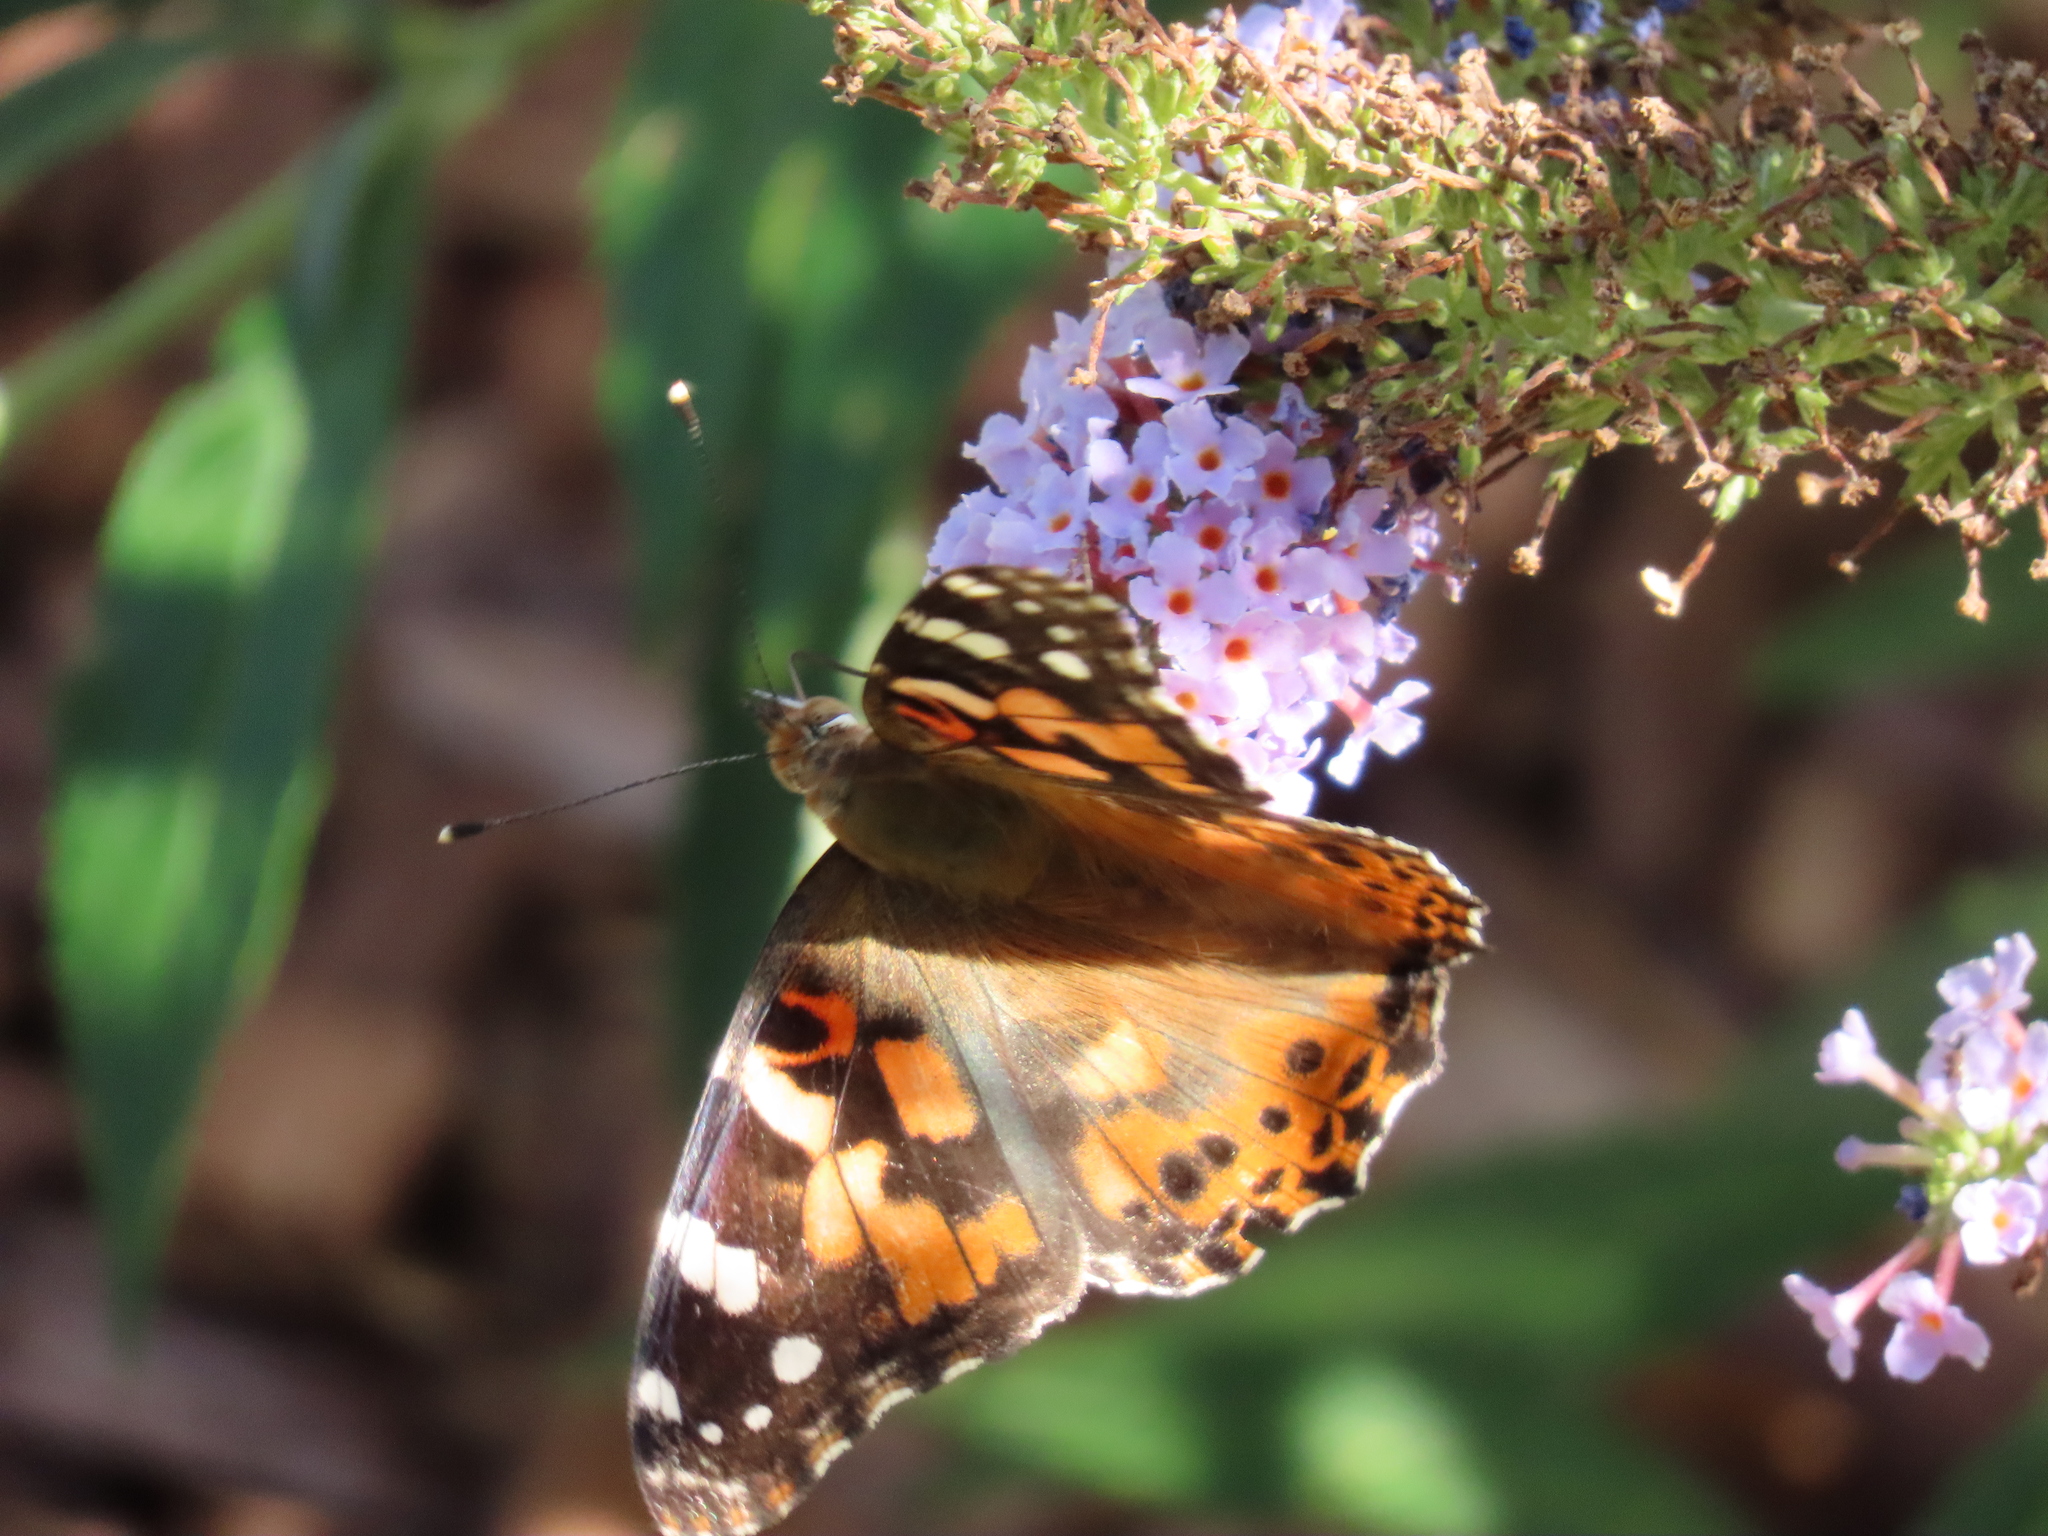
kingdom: Animalia
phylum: Arthropoda
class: Insecta
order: Lepidoptera
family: Nymphalidae
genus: Vanessa
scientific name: Vanessa cardui
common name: Painted lady
